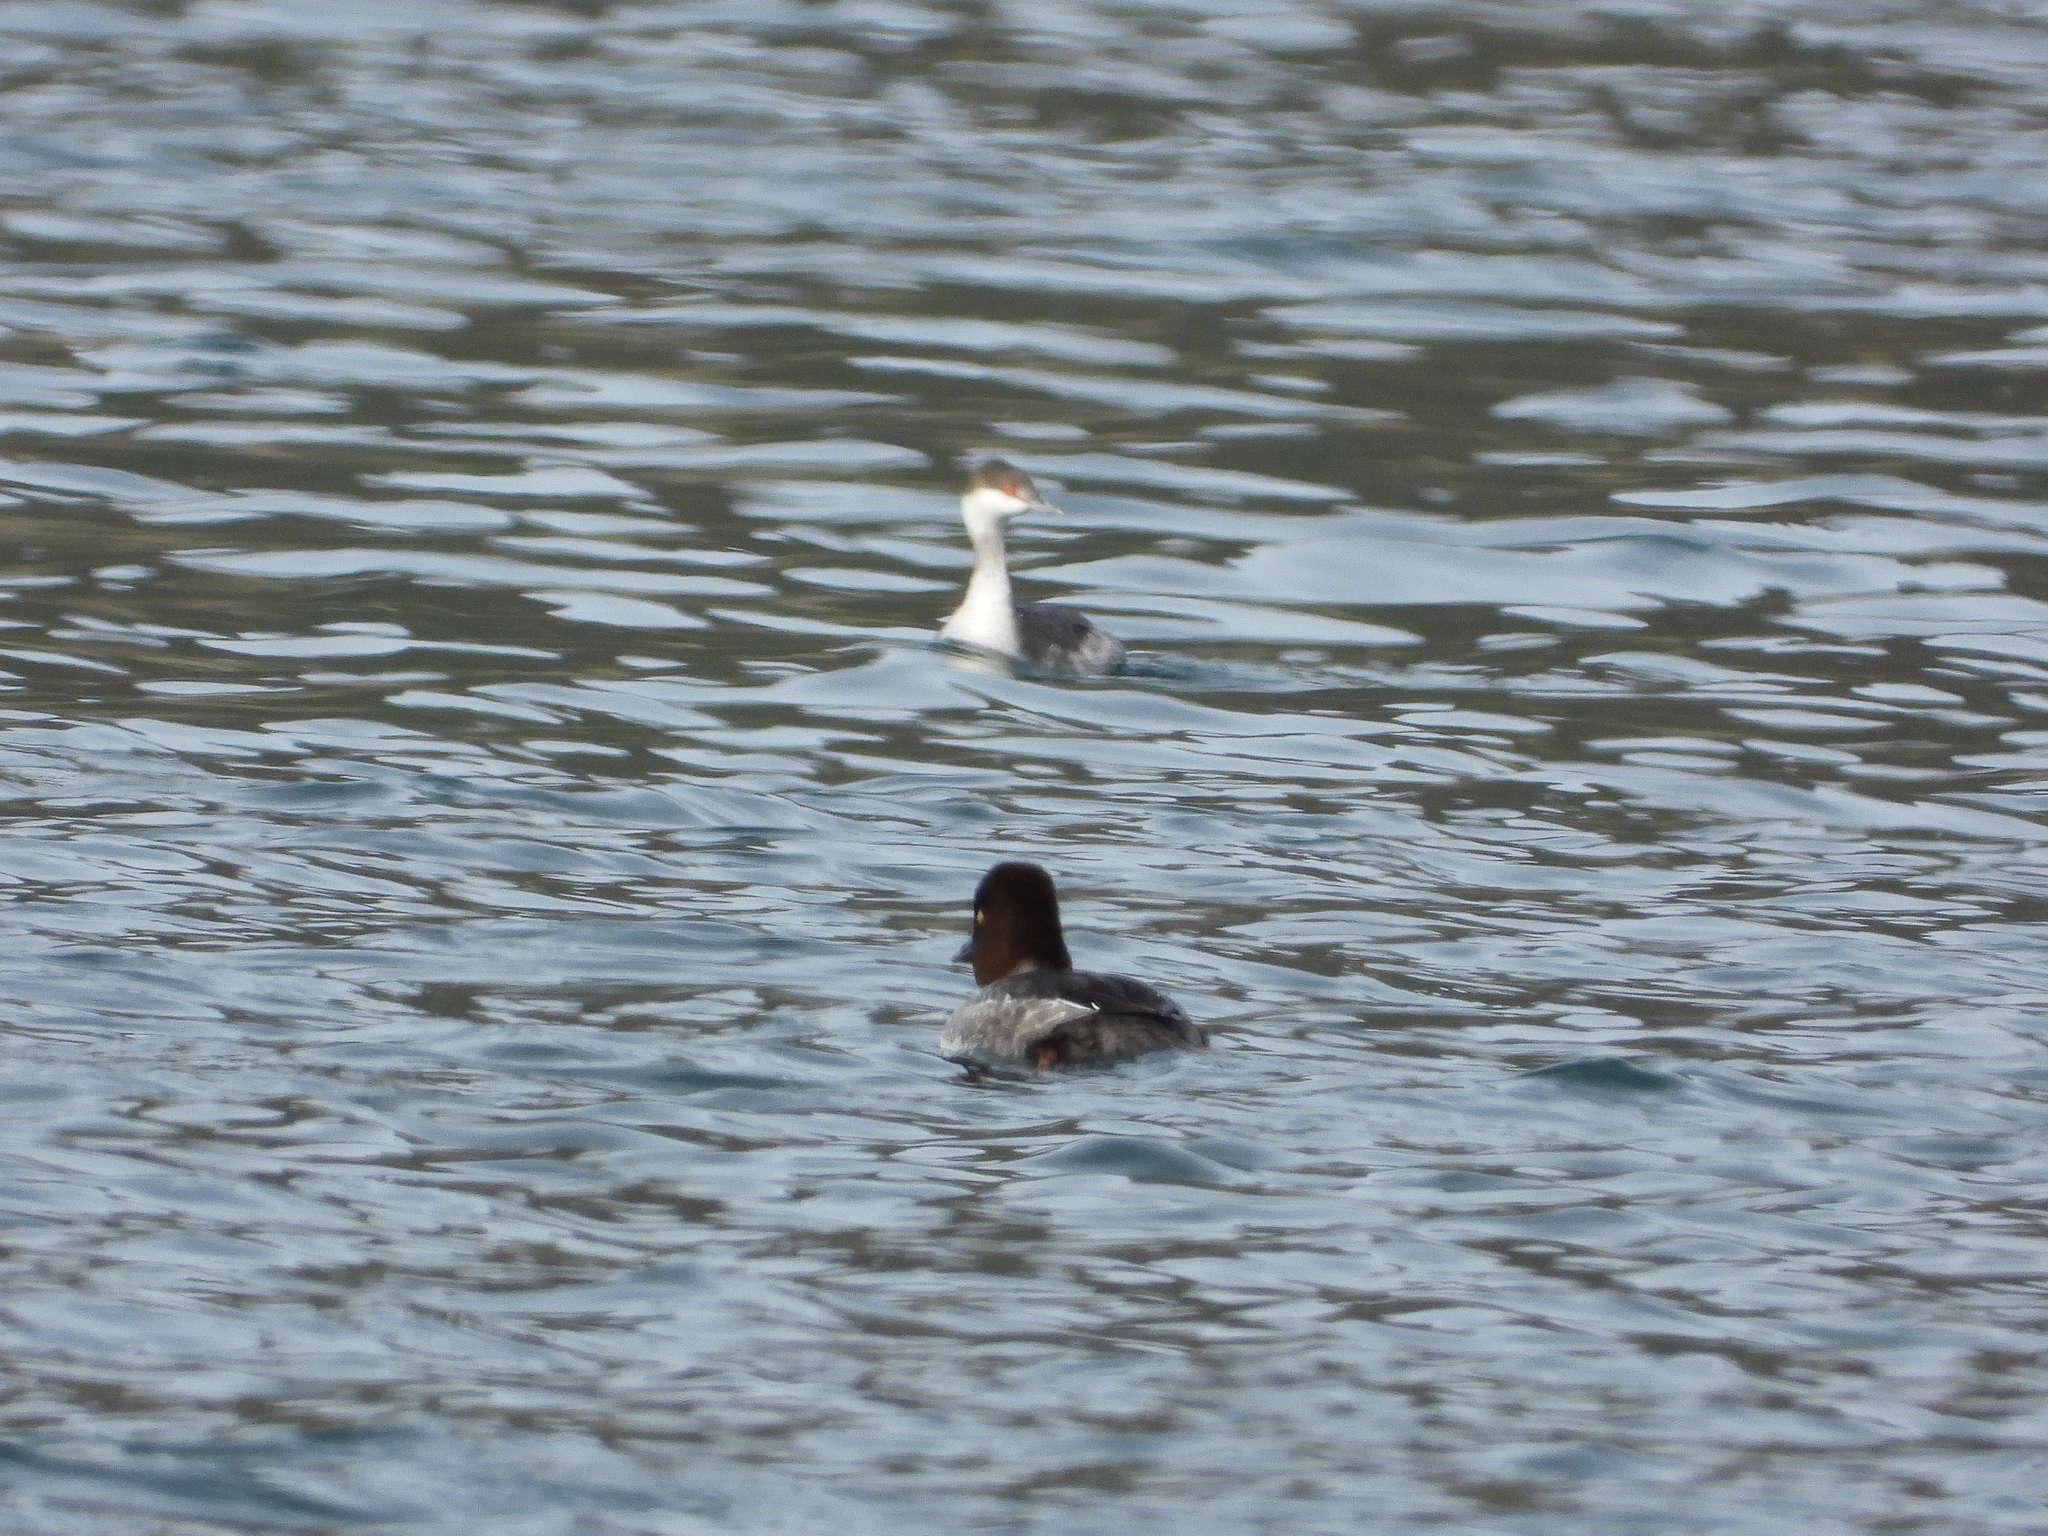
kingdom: Animalia
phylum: Chordata
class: Aves
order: Podicipediformes
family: Podicipedidae
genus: Podiceps
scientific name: Podiceps auritus
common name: Horned grebe
